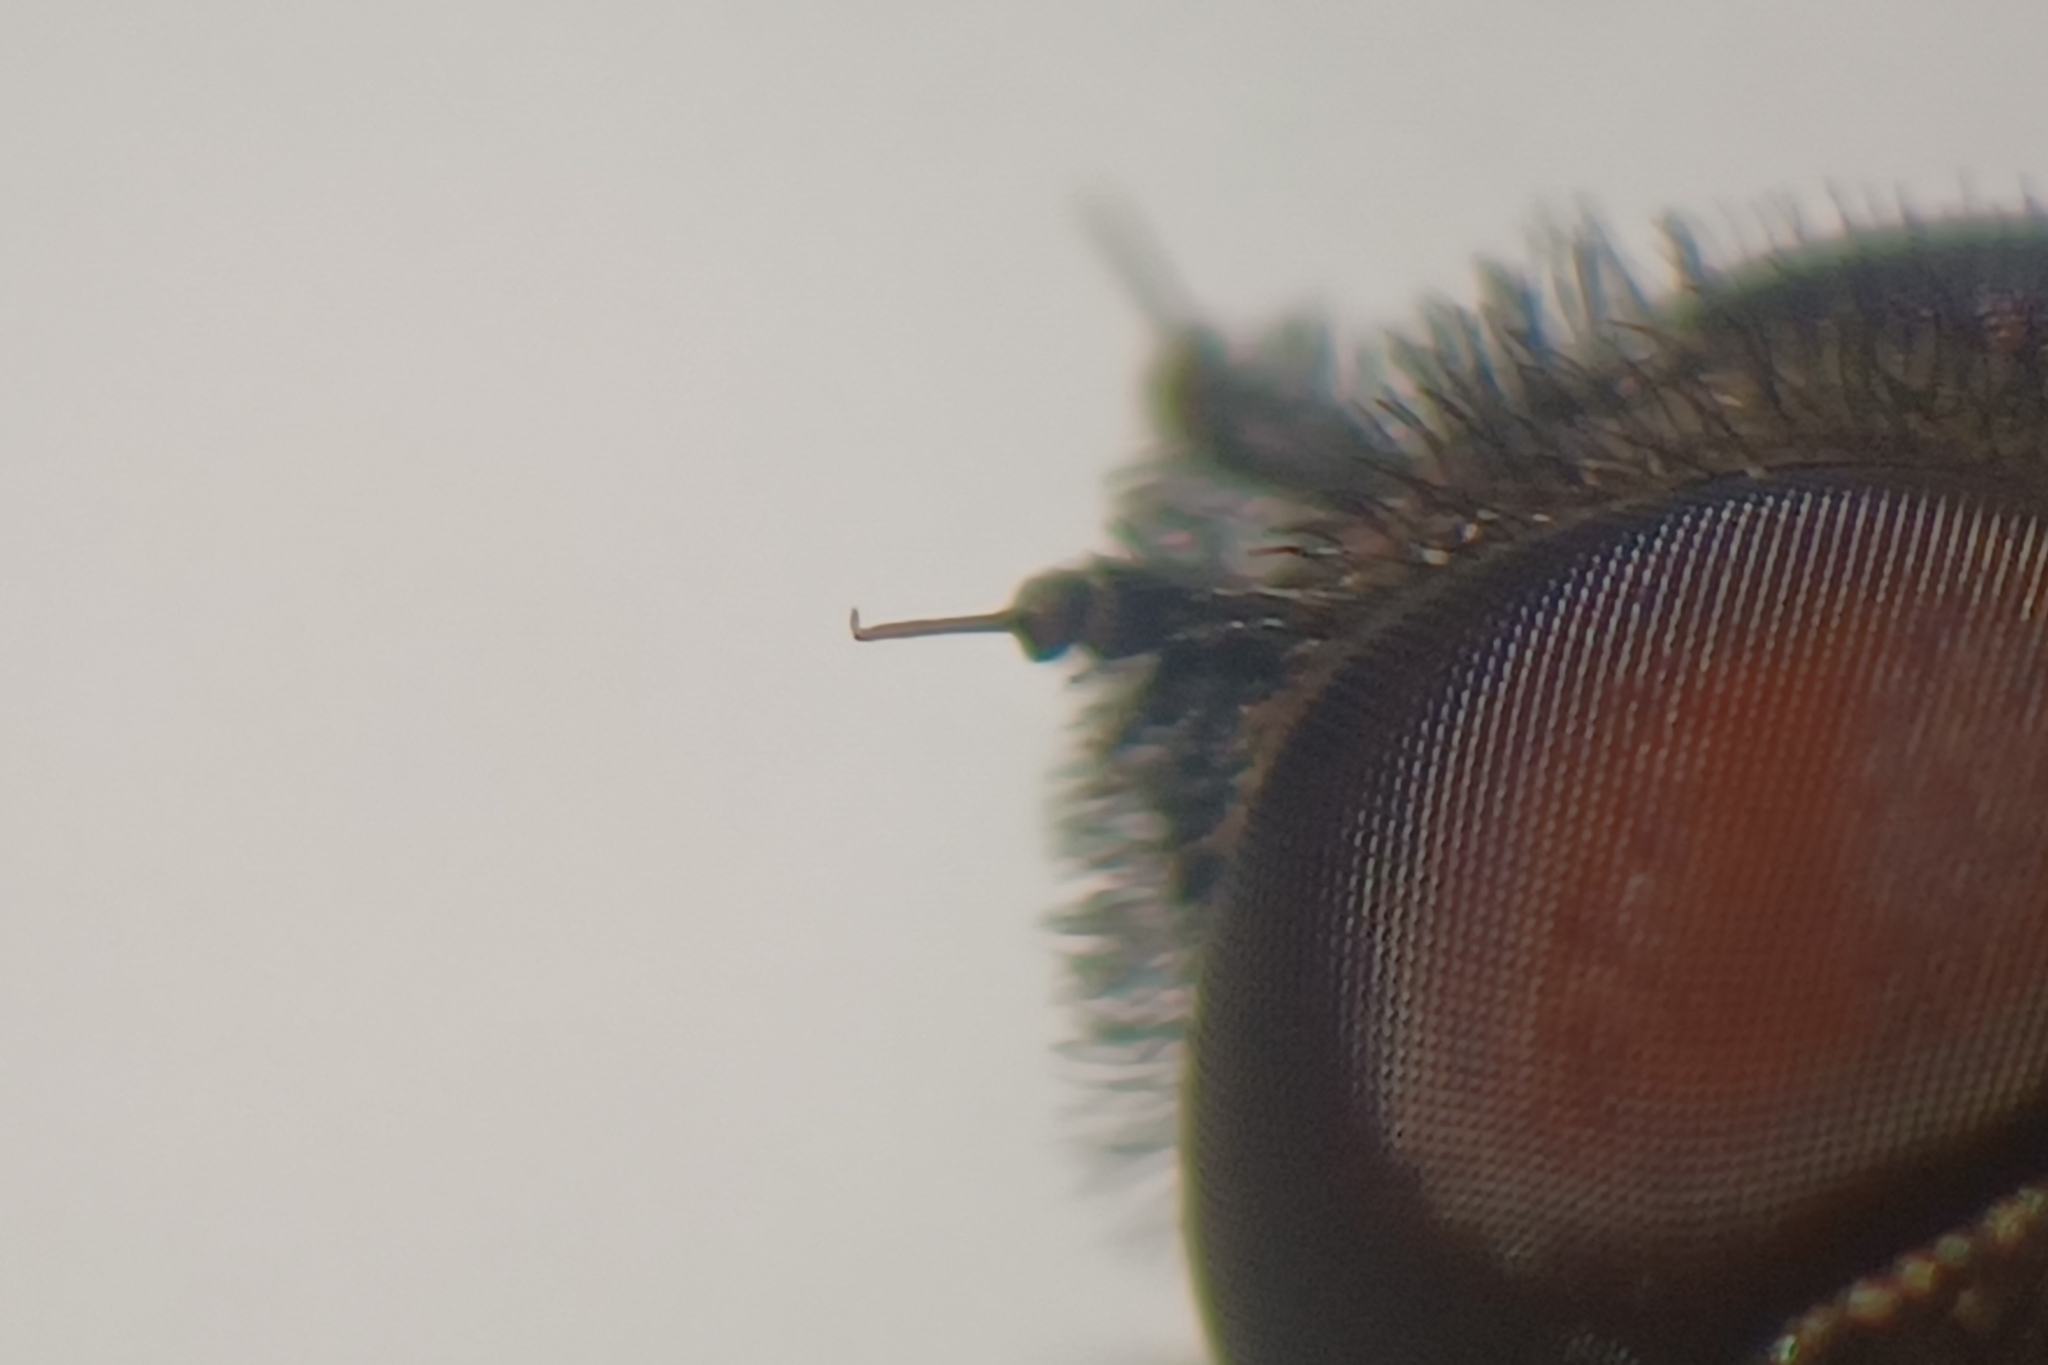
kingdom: Animalia
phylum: Arthropoda
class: Insecta
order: Diptera
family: Bombyliidae
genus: Hemipenthes
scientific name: Hemipenthes webberi
